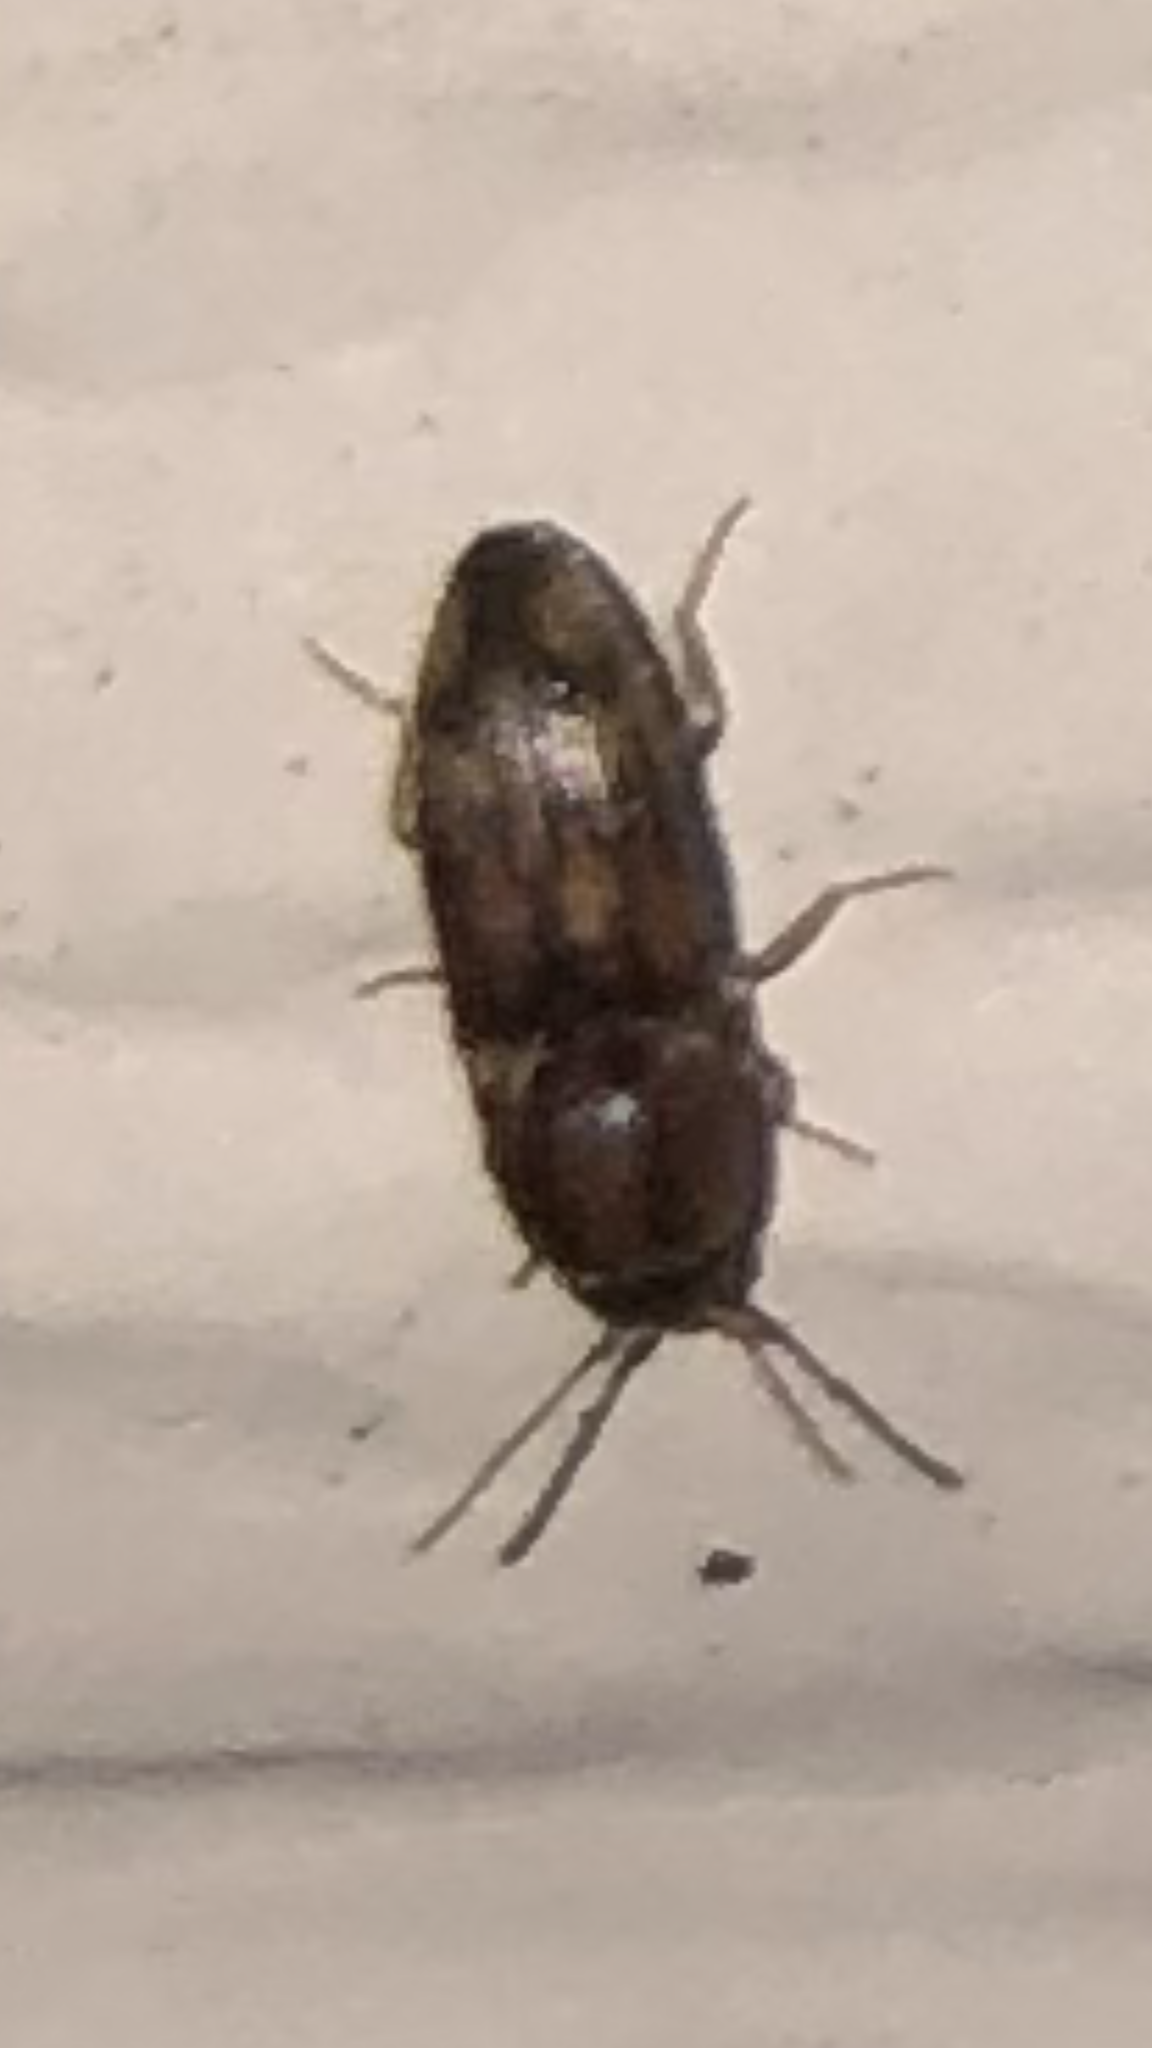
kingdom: Animalia
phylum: Arthropoda
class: Insecta
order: Coleoptera
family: Elateridae
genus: Monocrepidius
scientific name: Monocrepidius bellus
